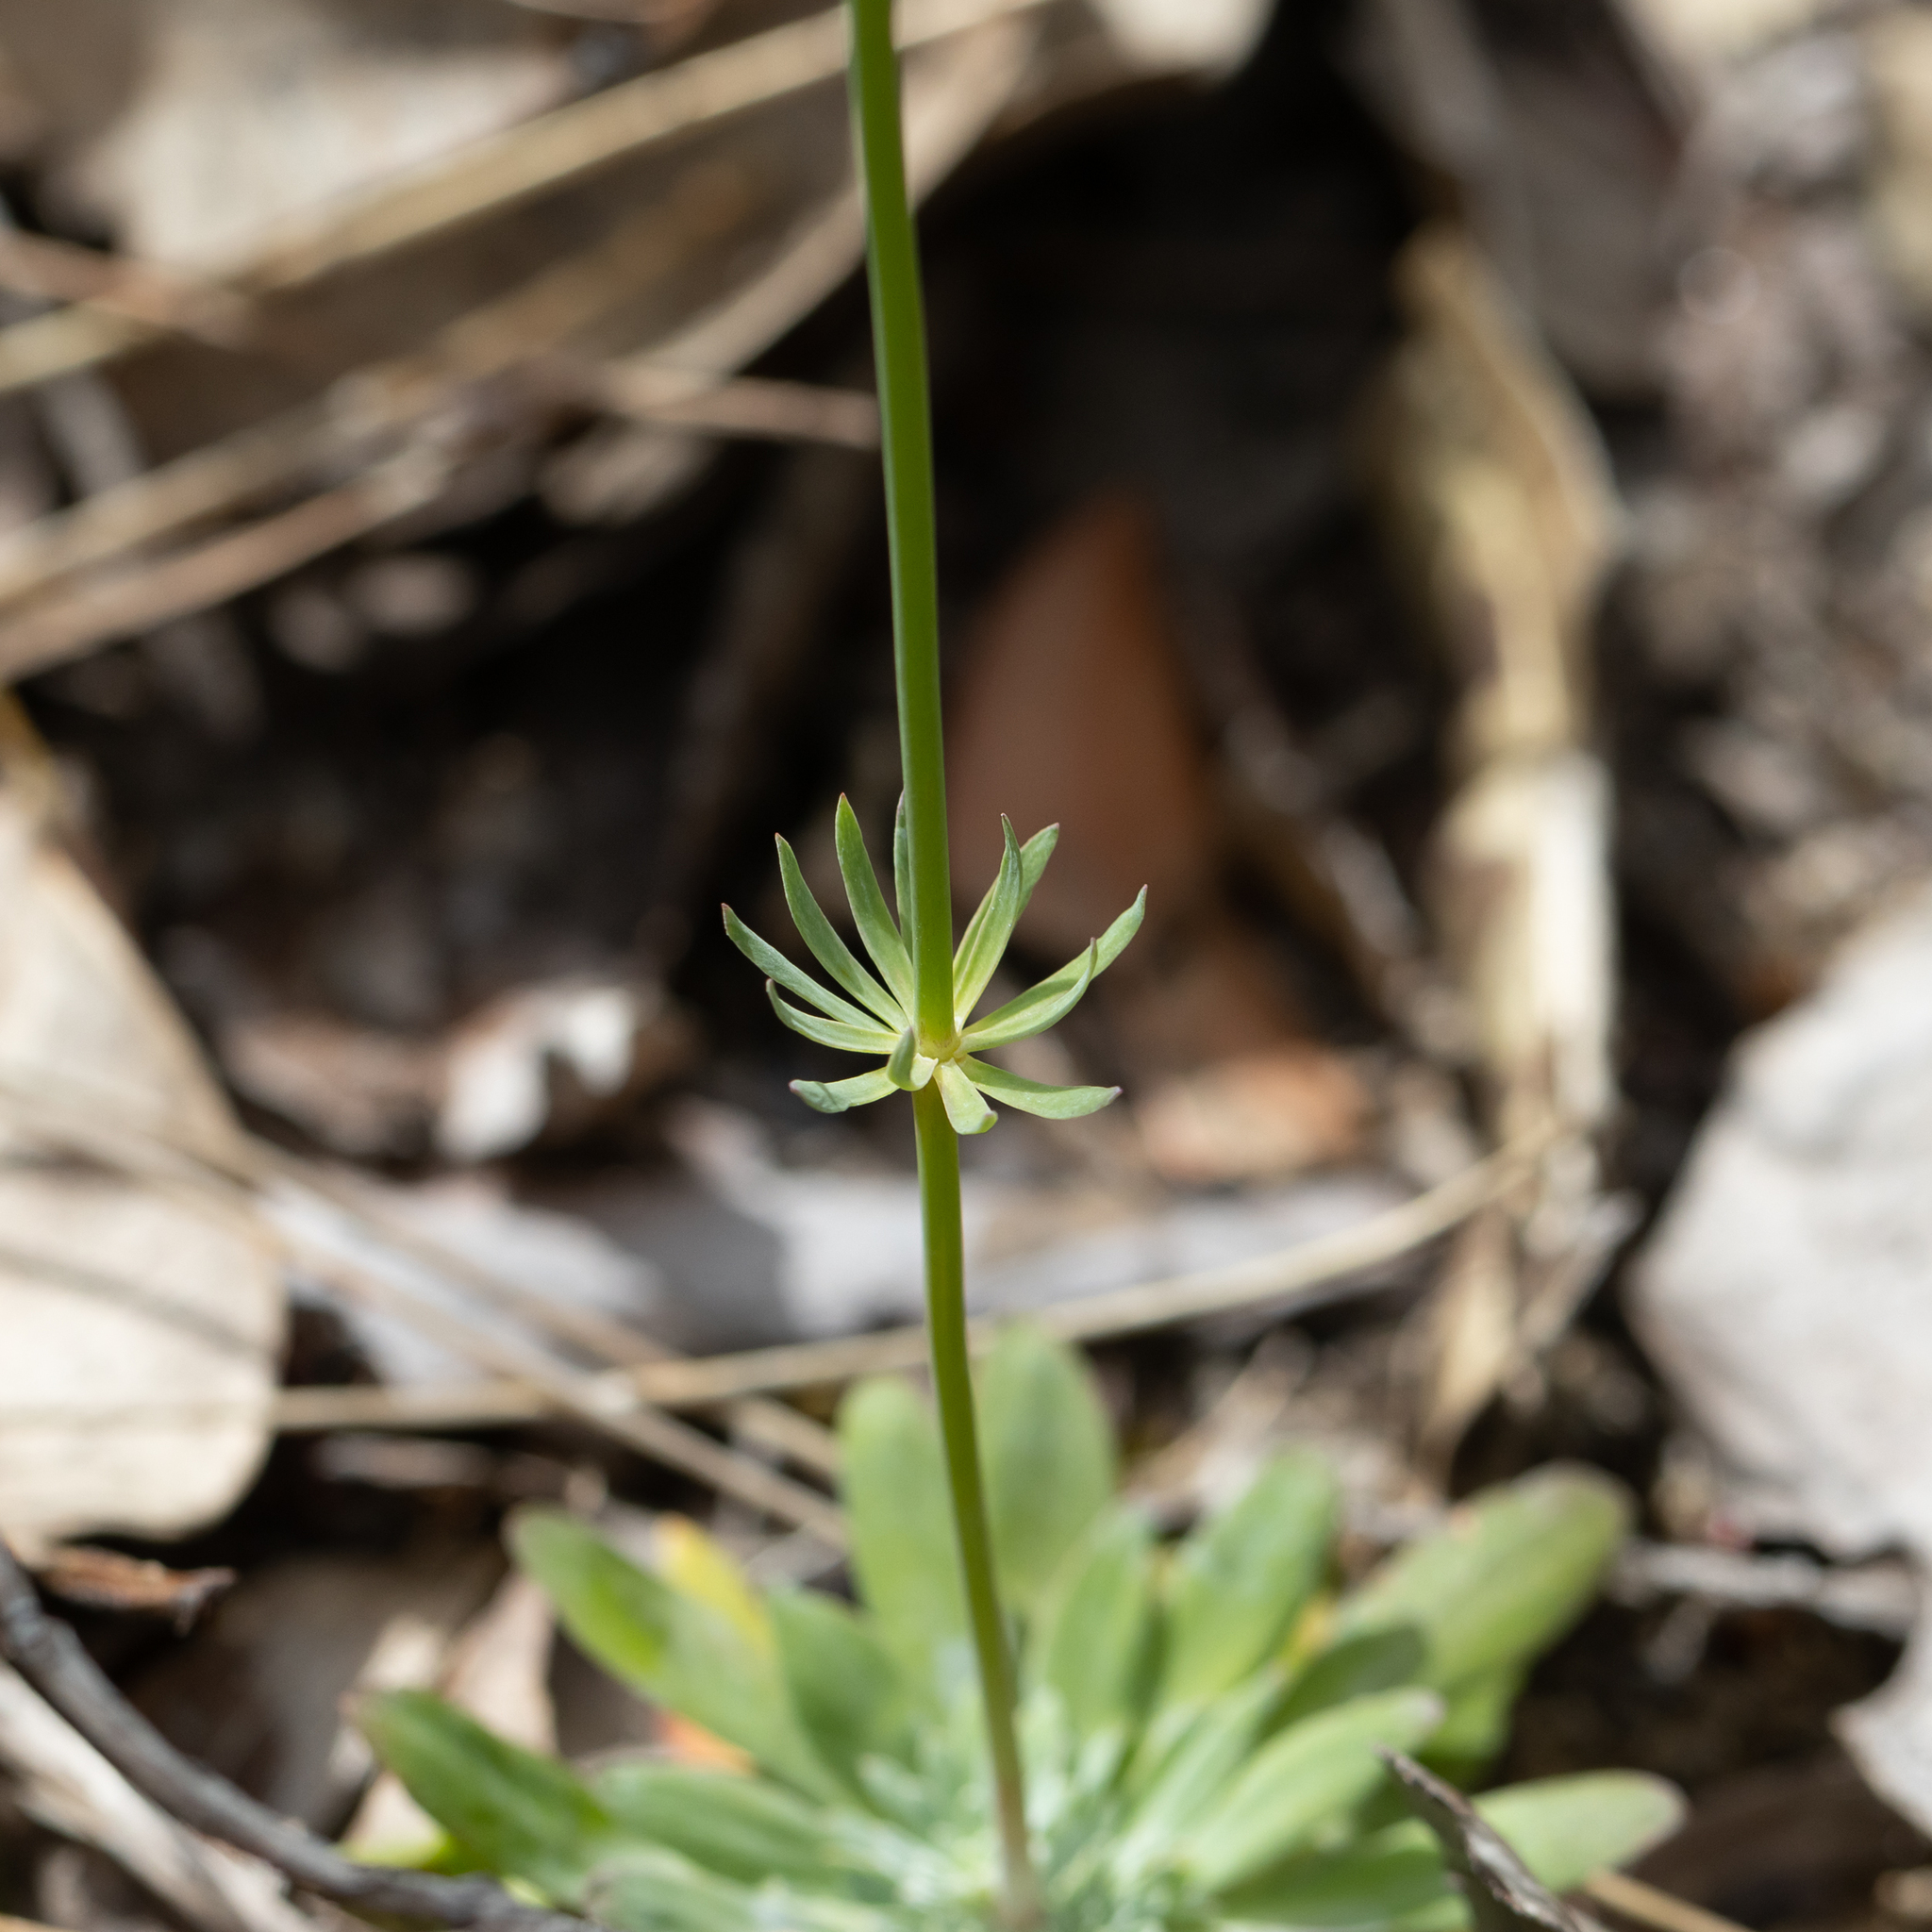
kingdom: Plantae
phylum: Tracheophyta
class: Magnoliopsida
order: Asterales
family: Stylidiaceae
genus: Stylidium
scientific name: Stylidium neurophyllum
